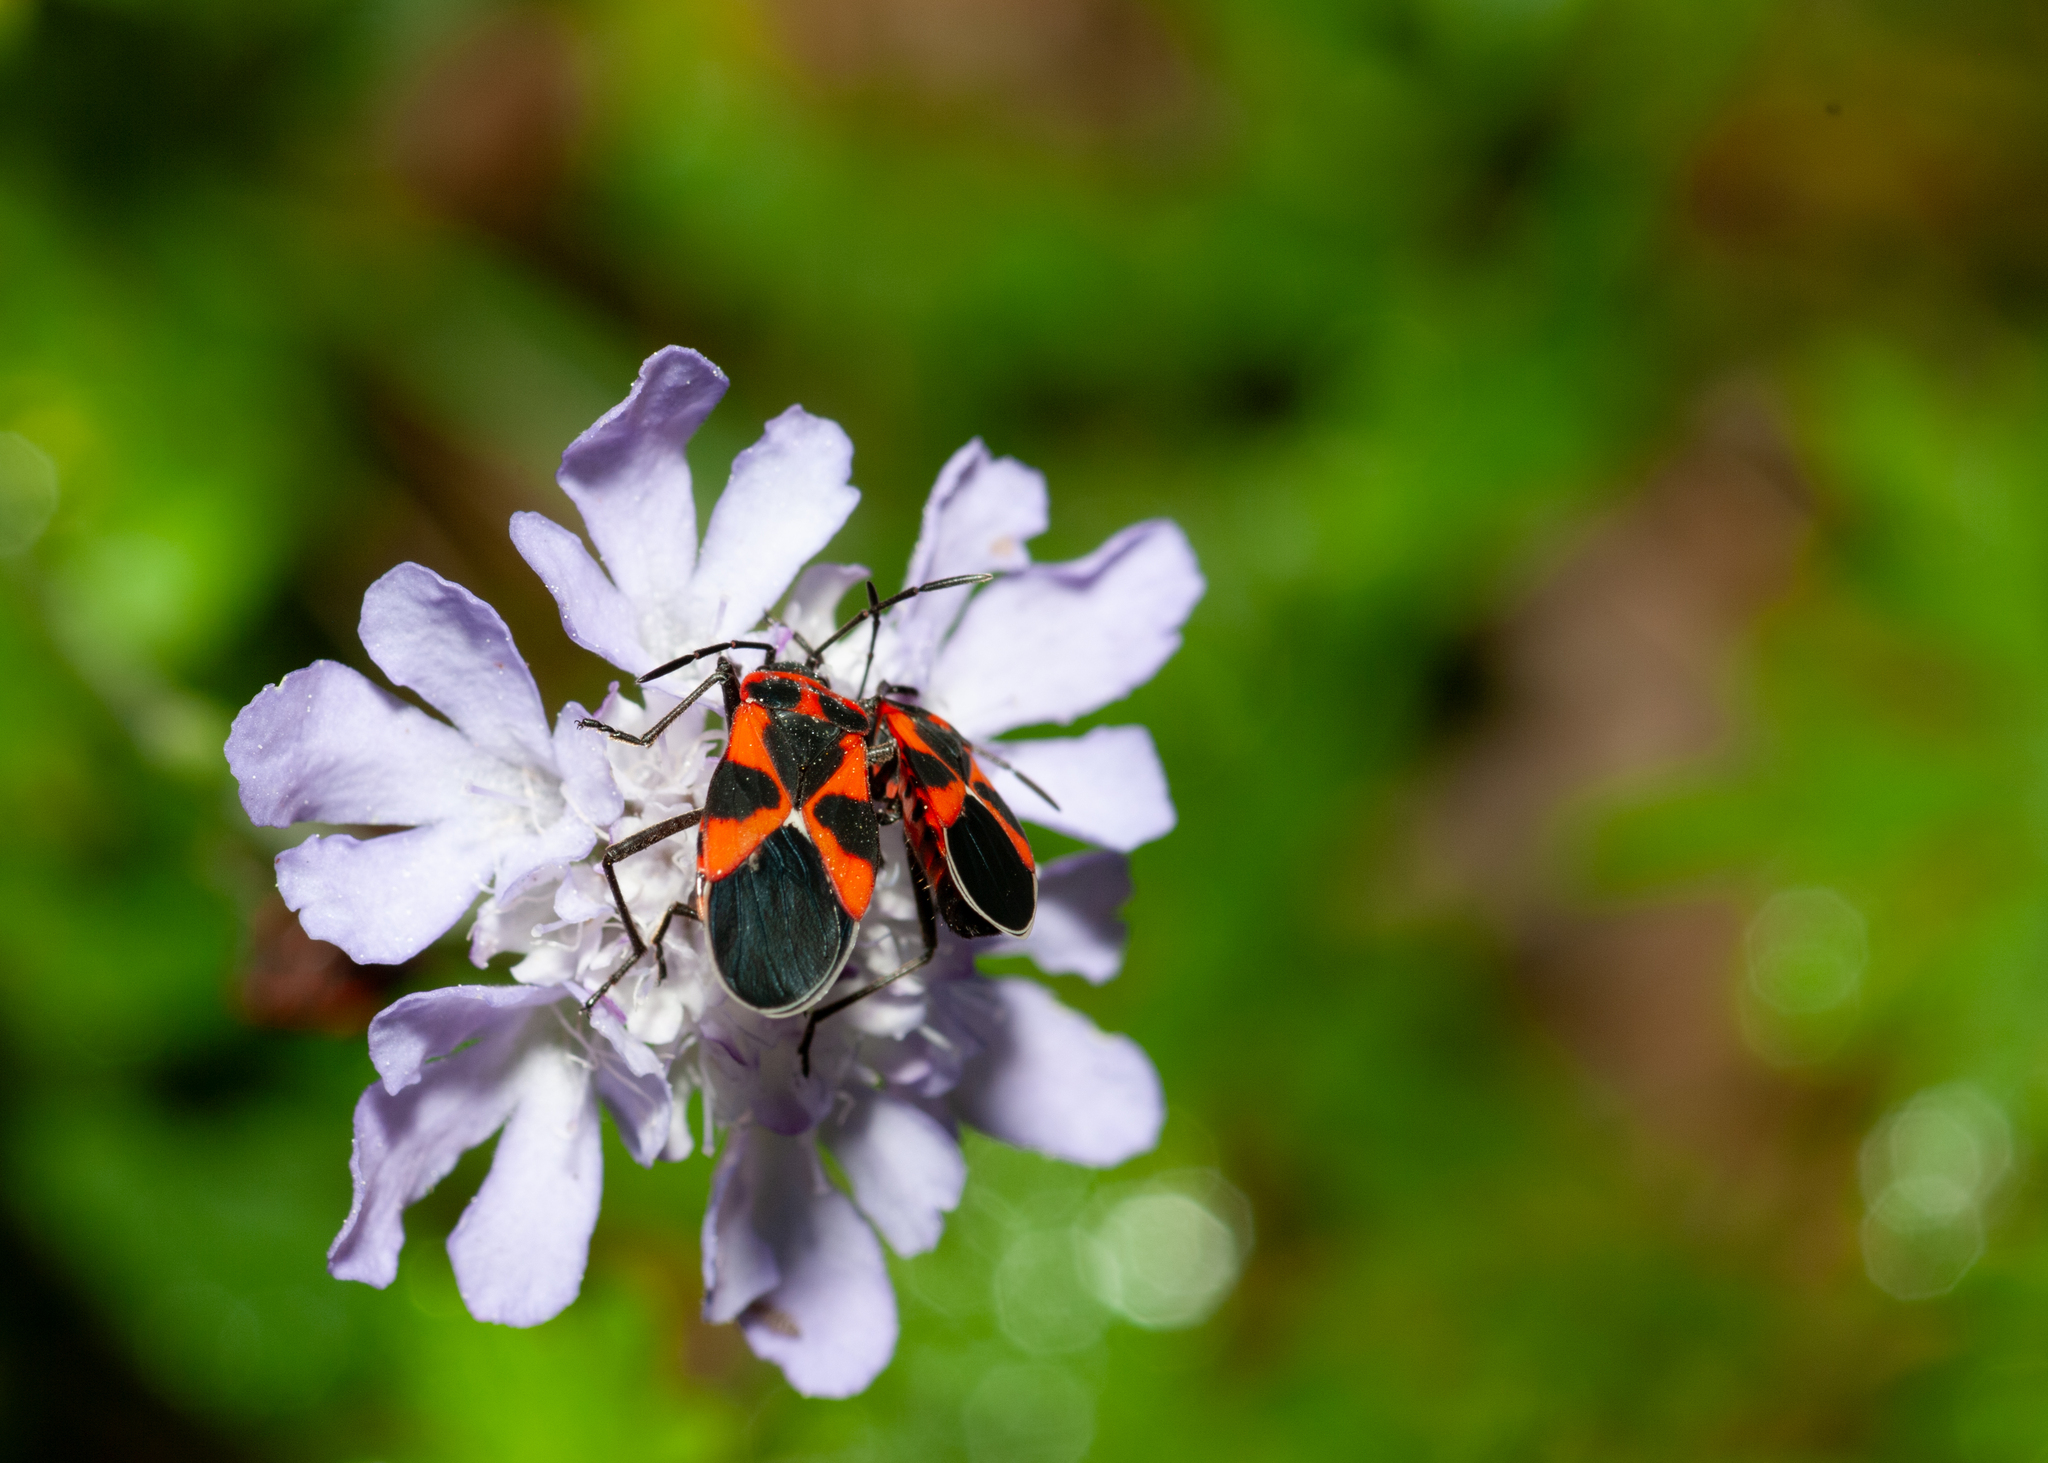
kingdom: Animalia
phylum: Arthropoda
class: Insecta
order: Hemiptera
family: Lygaeidae
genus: Tropidothorax
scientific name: Tropidothorax leucopterus
